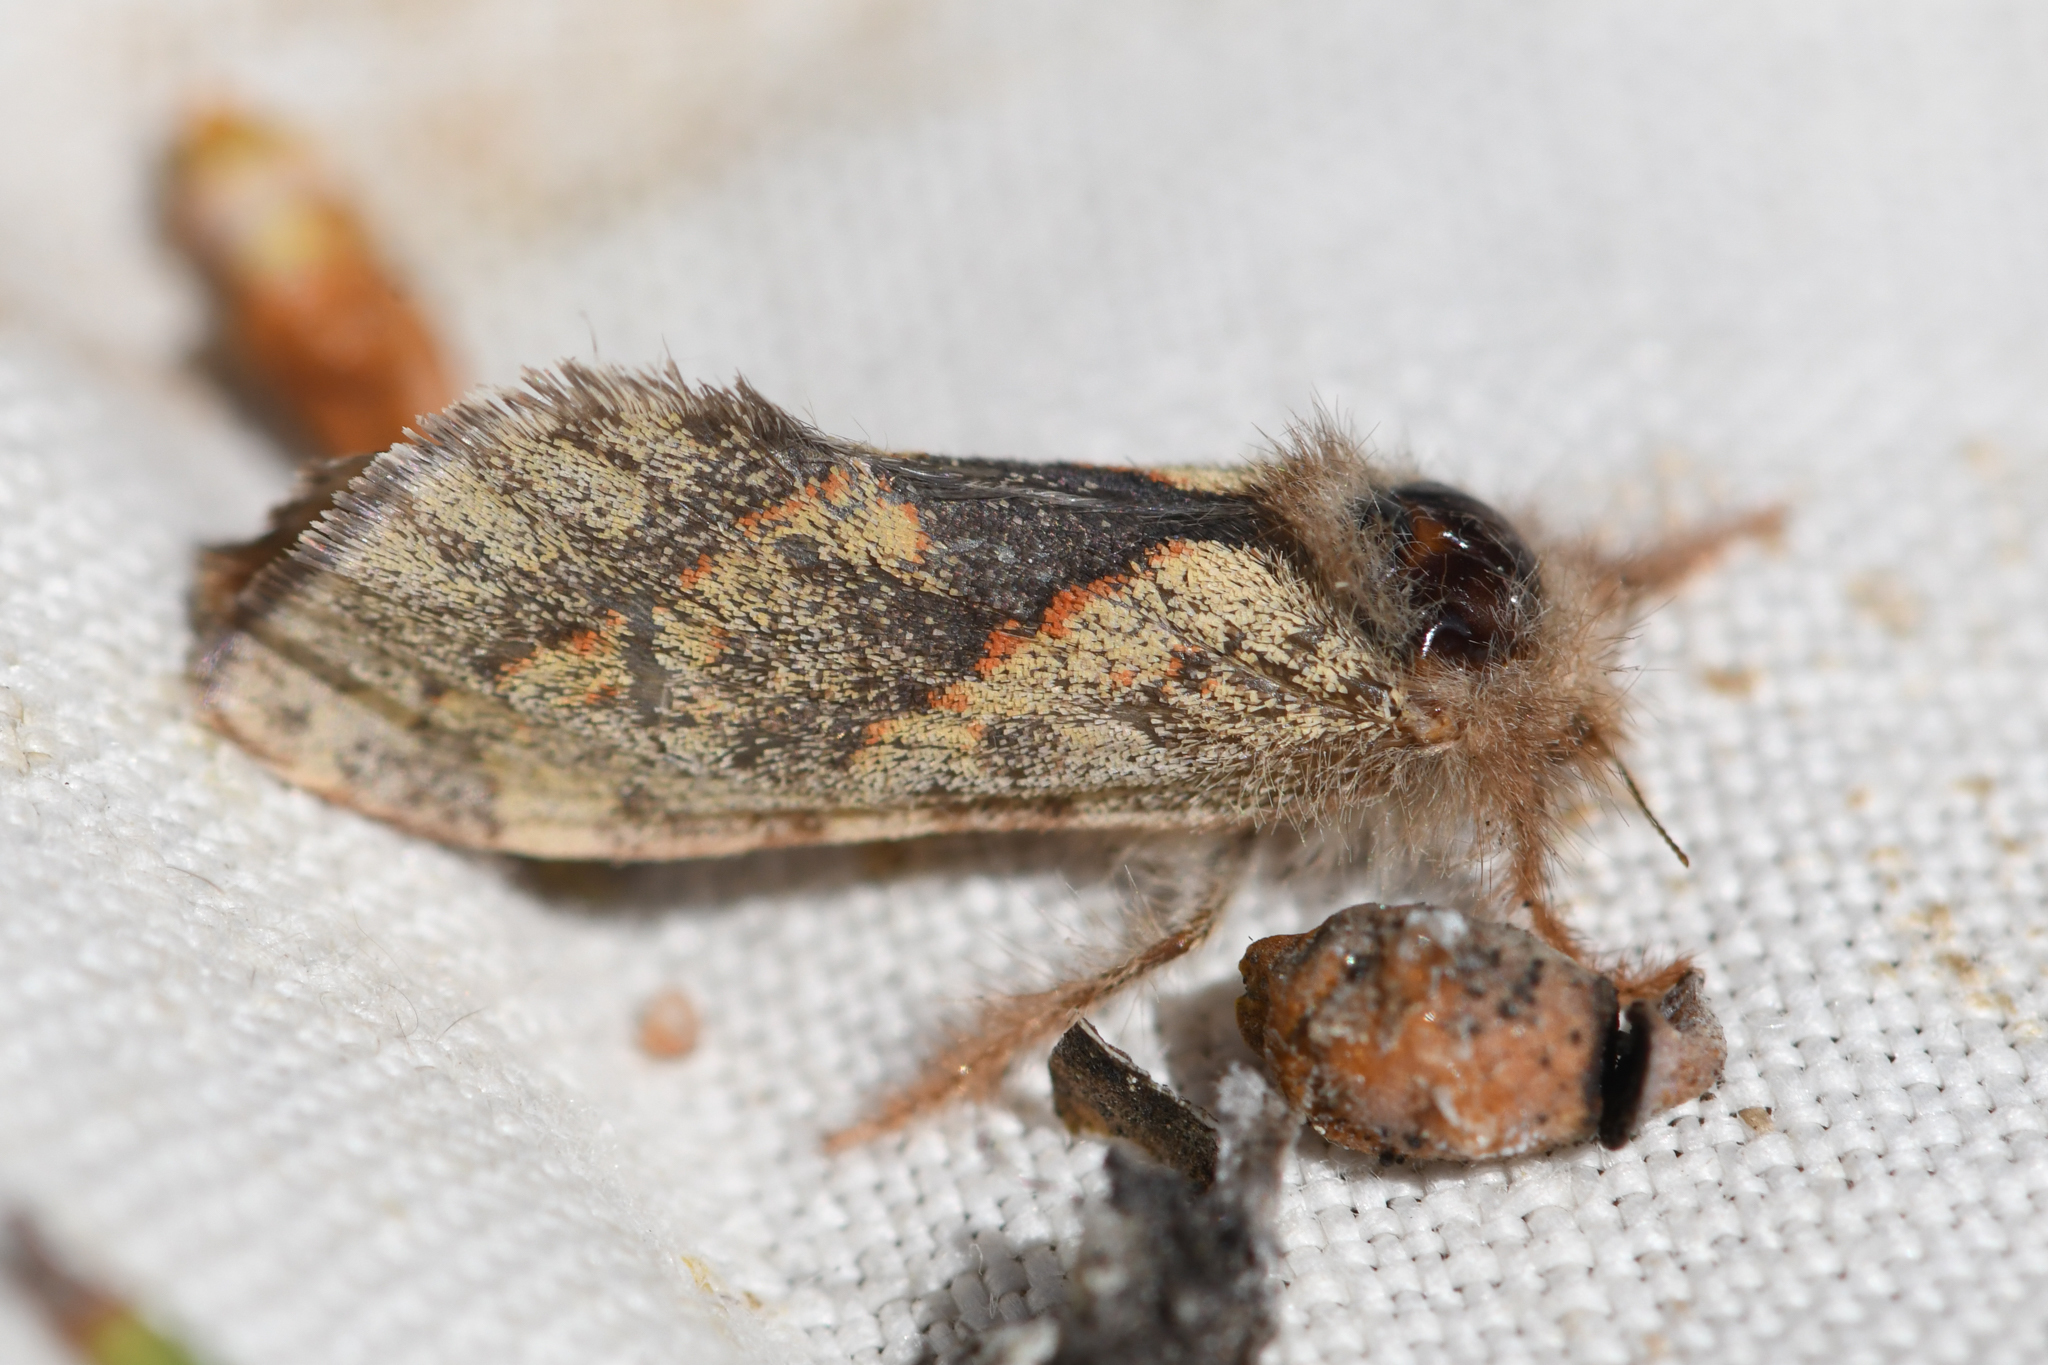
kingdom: Animalia
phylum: Arthropoda
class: Insecta
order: Lepidoptera
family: Hepialidae
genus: Phymatopus
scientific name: Phymatopus hectoides
